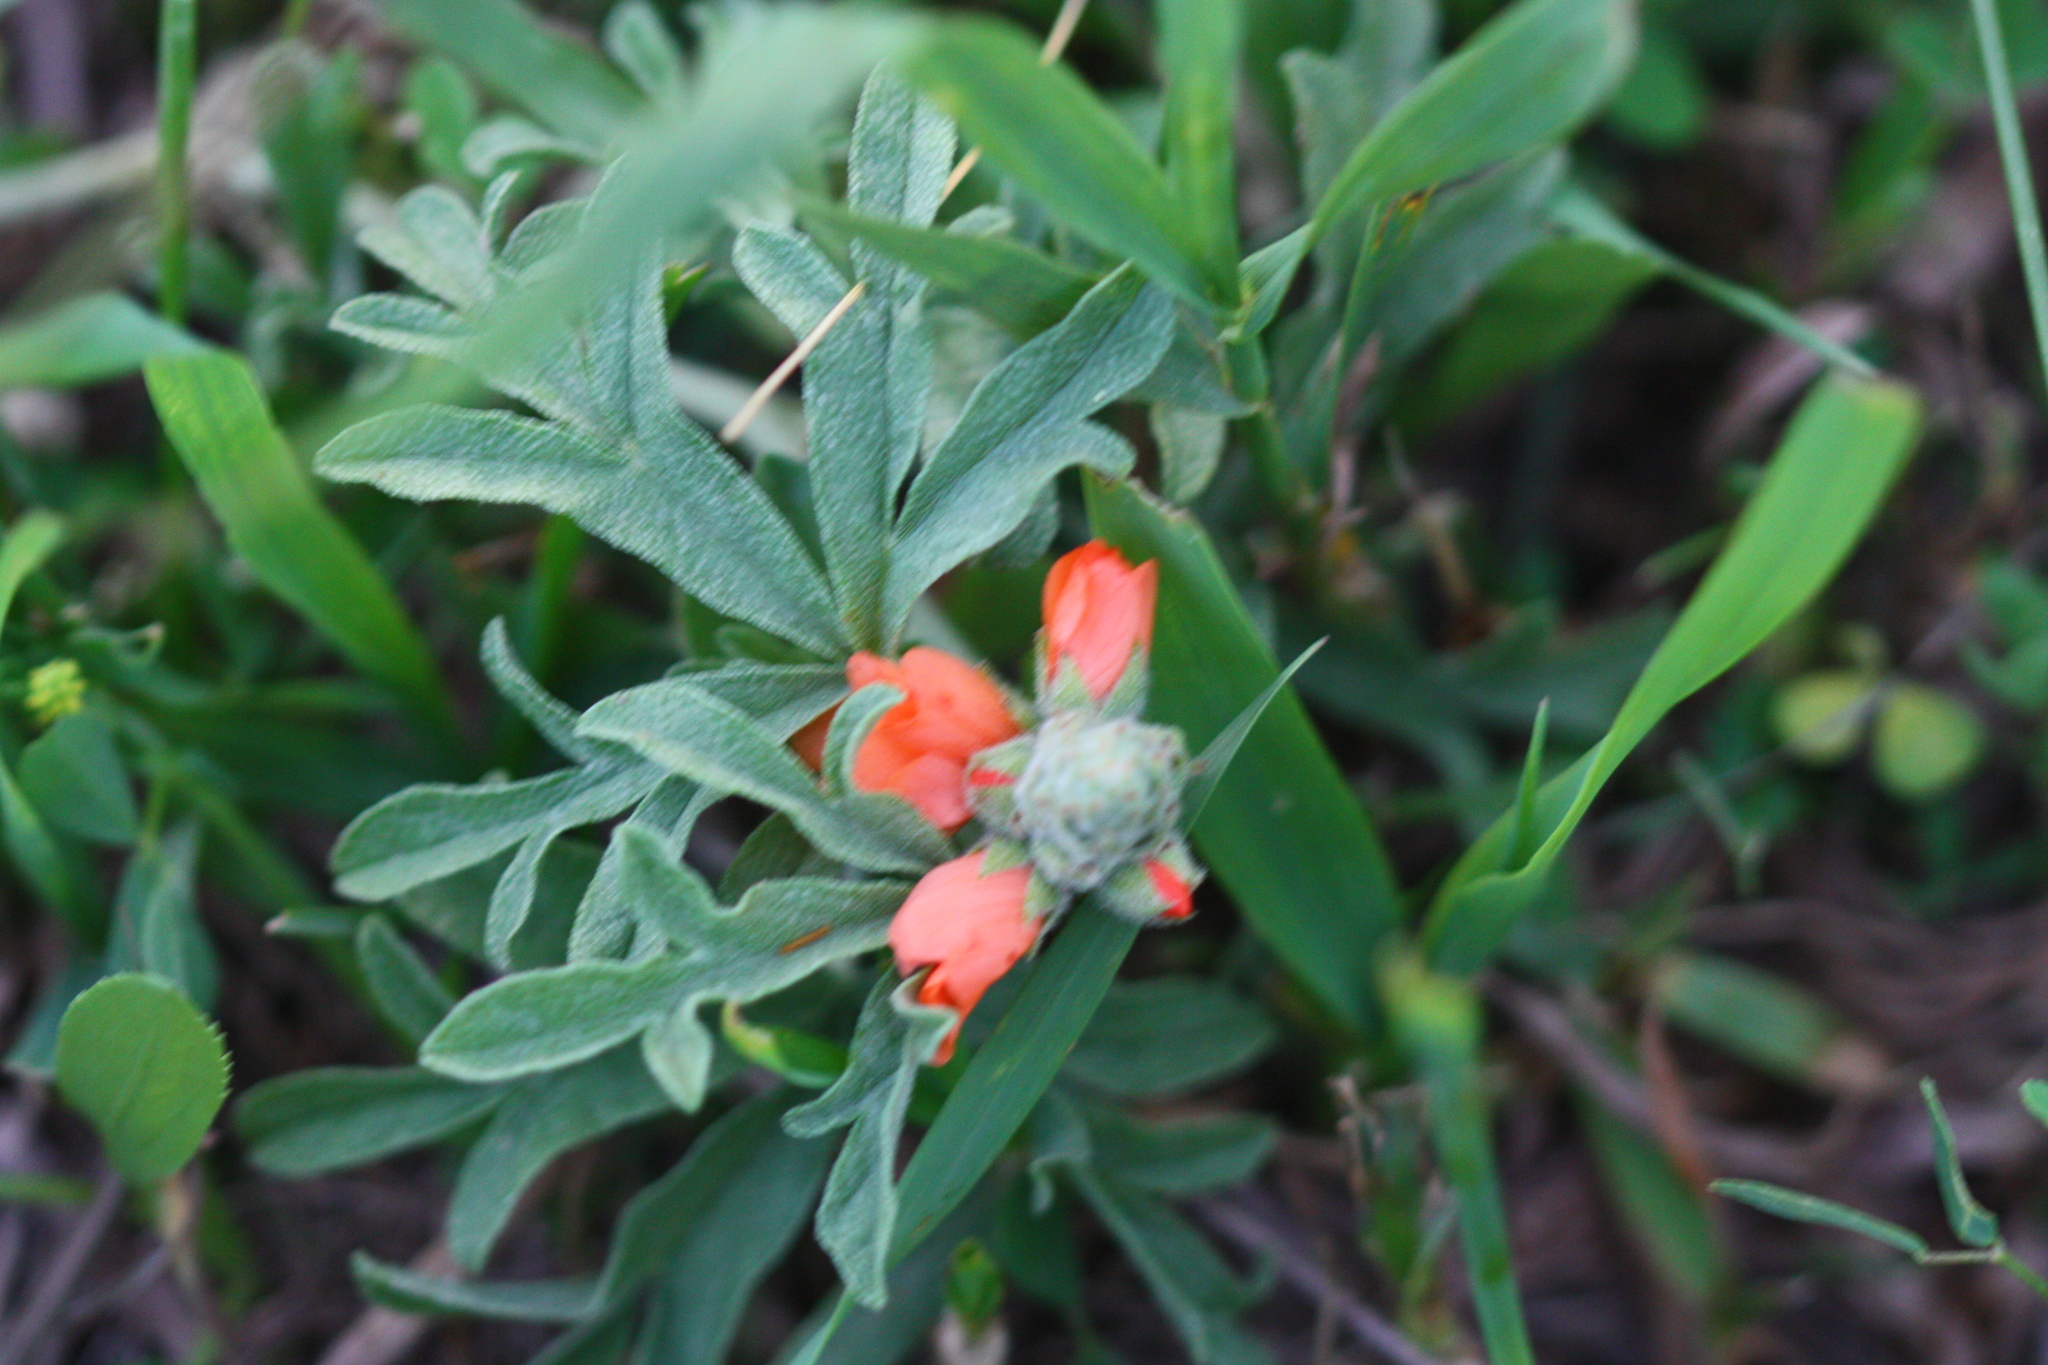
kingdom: Plantae
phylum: Tracheophyta
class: Magnoliopsida
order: Malvales
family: Malvaceae
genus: Sphaeralcea
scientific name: Sphaeralcea coccinea
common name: Moss-rose
